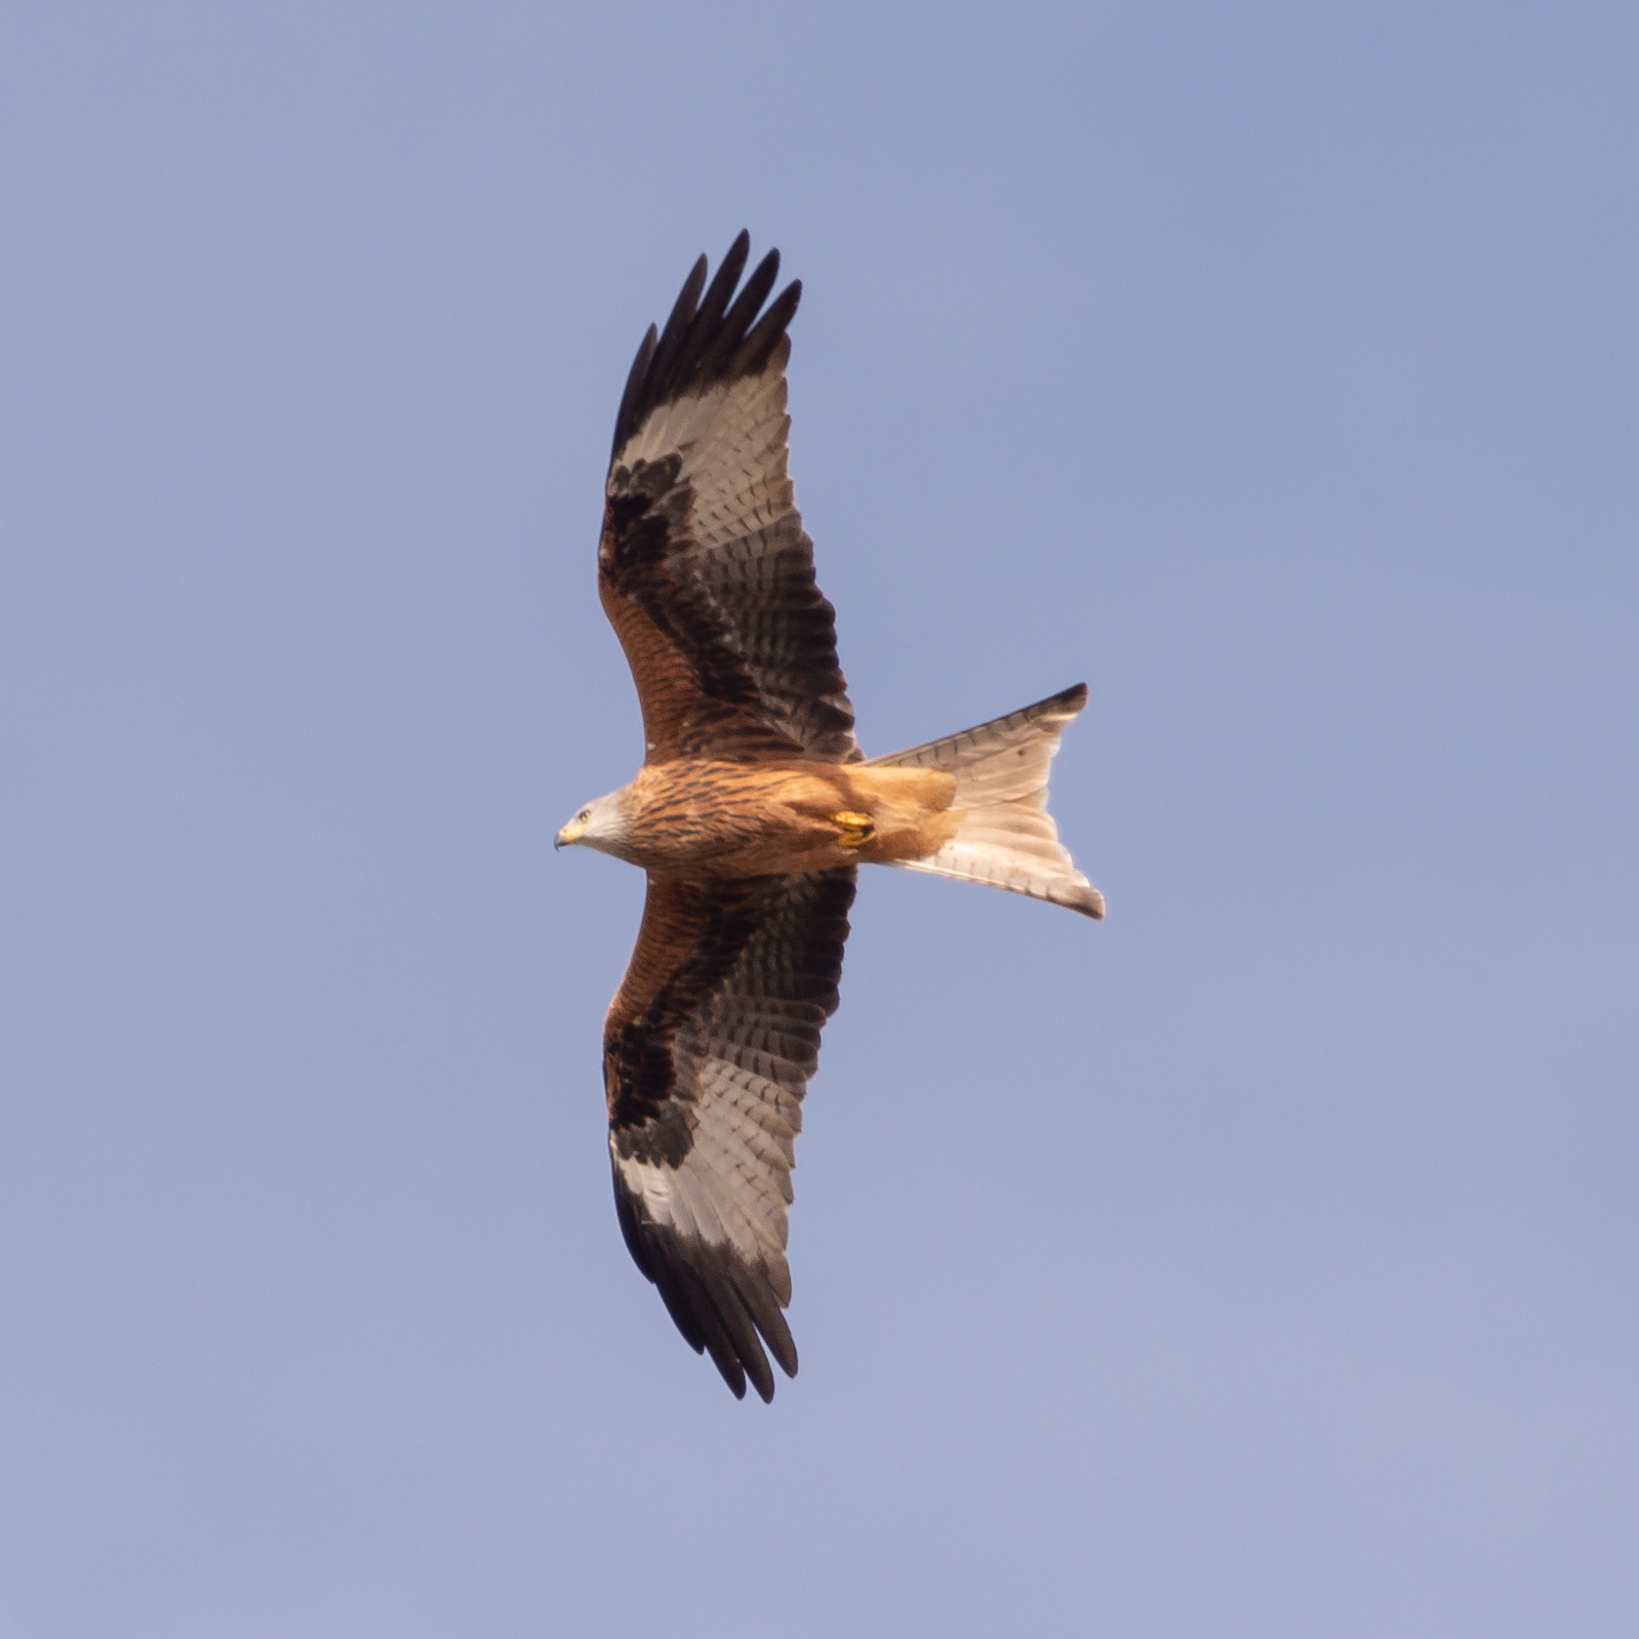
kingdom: Animalia
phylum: Chordata
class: Aves
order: Accipitriformes
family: Accipitridae
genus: Milvus
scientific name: Milvus milvus
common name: Red kite
